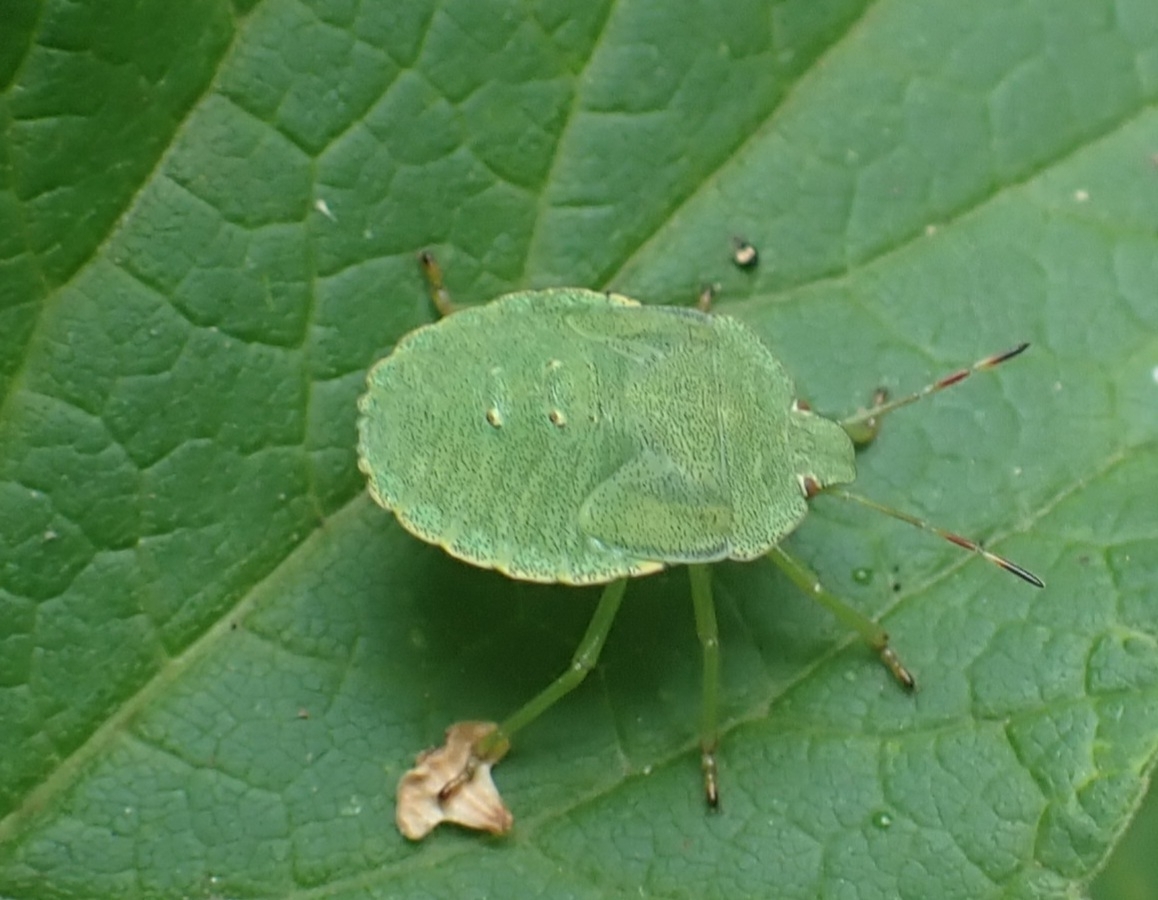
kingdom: Animalia
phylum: Arthropoda
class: Insecta
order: Hemiptera
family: Pentatomidae
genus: Palomena
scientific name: Palomena prasina
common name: Green shieldbug
